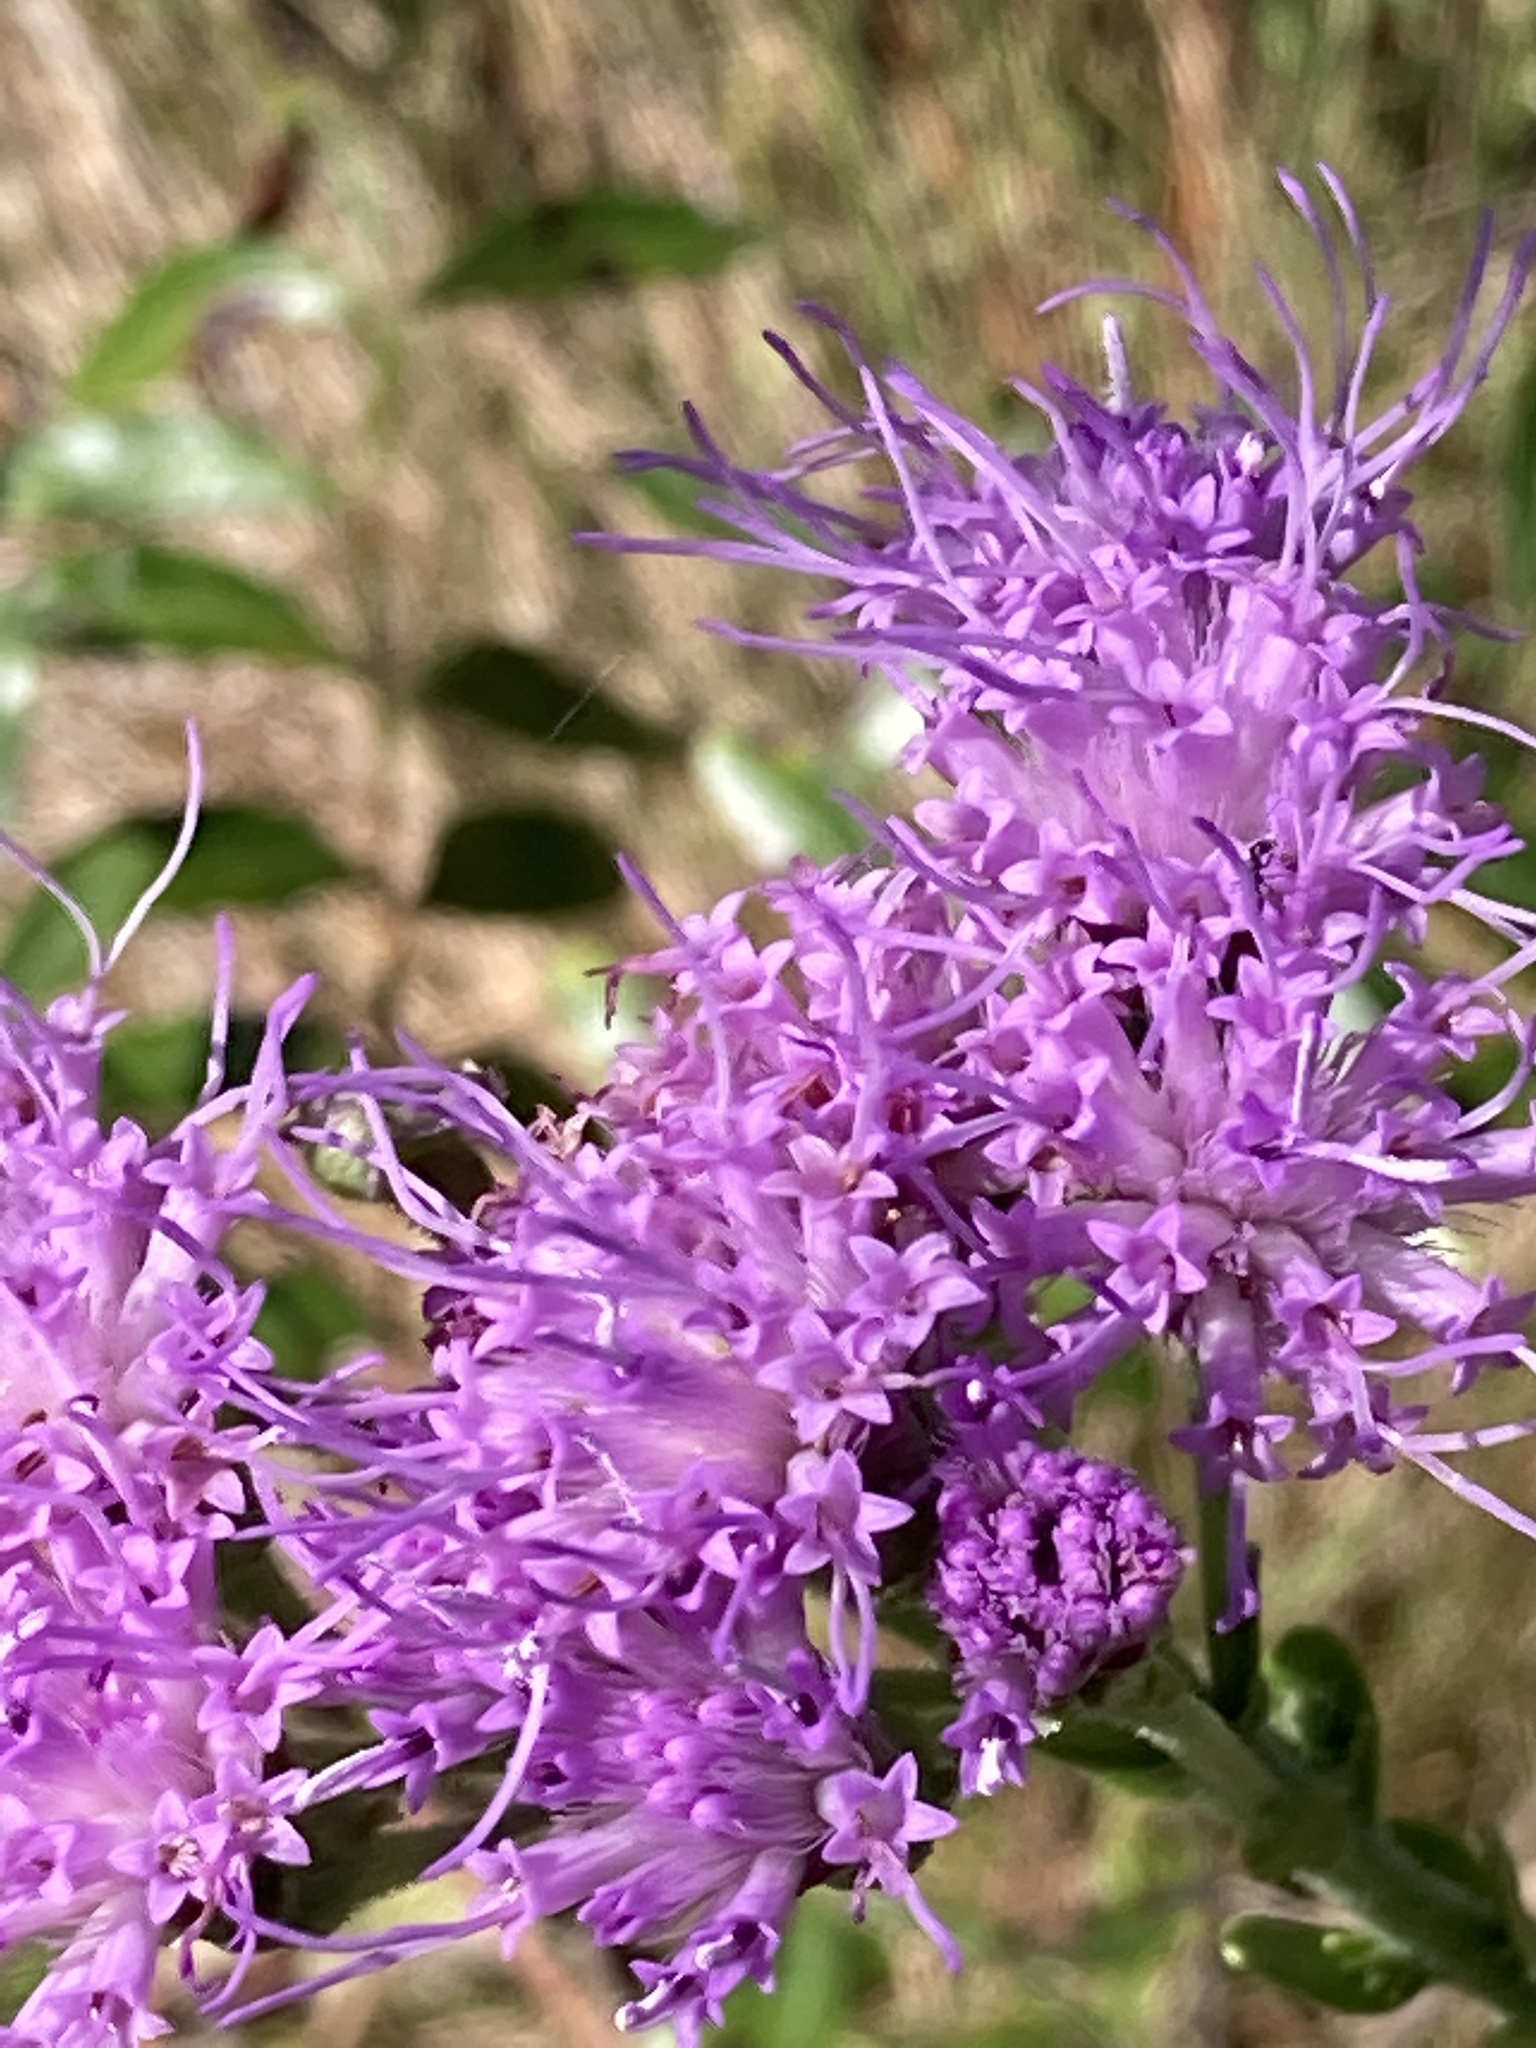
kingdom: Plantae
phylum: Tracheophyta
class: Magnoliopsida
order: Asterales
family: Asteraceae
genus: Carphephorus
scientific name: Carphephorus corymbosus
